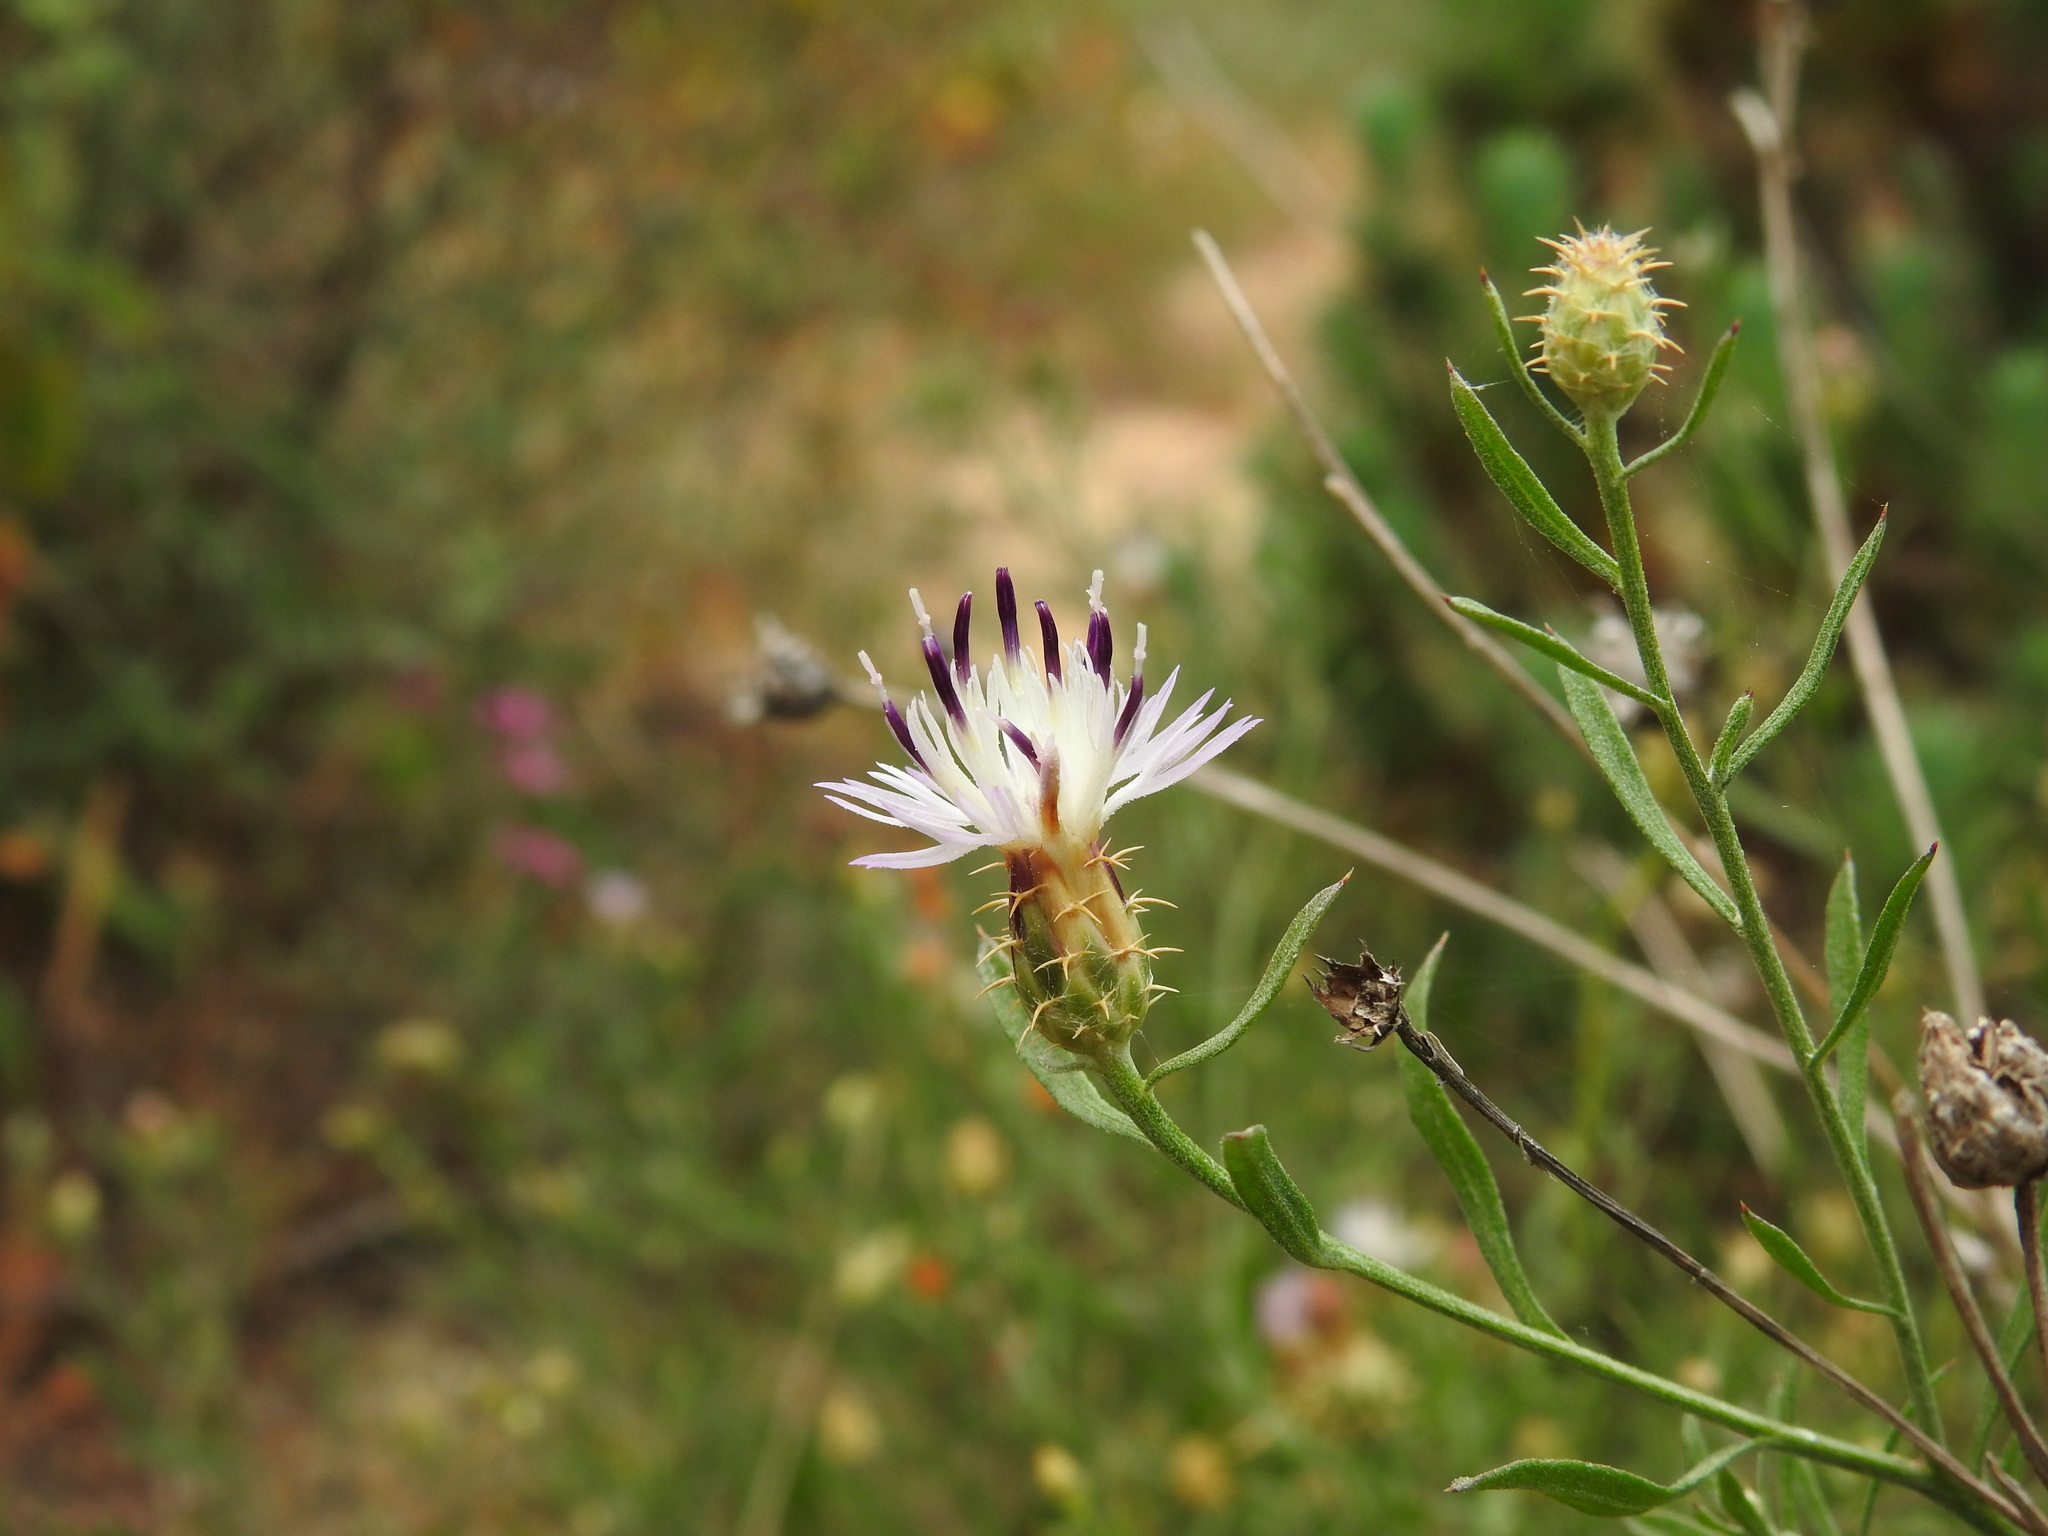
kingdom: Plantae
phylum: Tracheophyta
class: Magnoliopsida
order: Asterales
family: Asteraceae
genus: Centaurea
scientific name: Centaurea aspera
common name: Rough star-thistle
